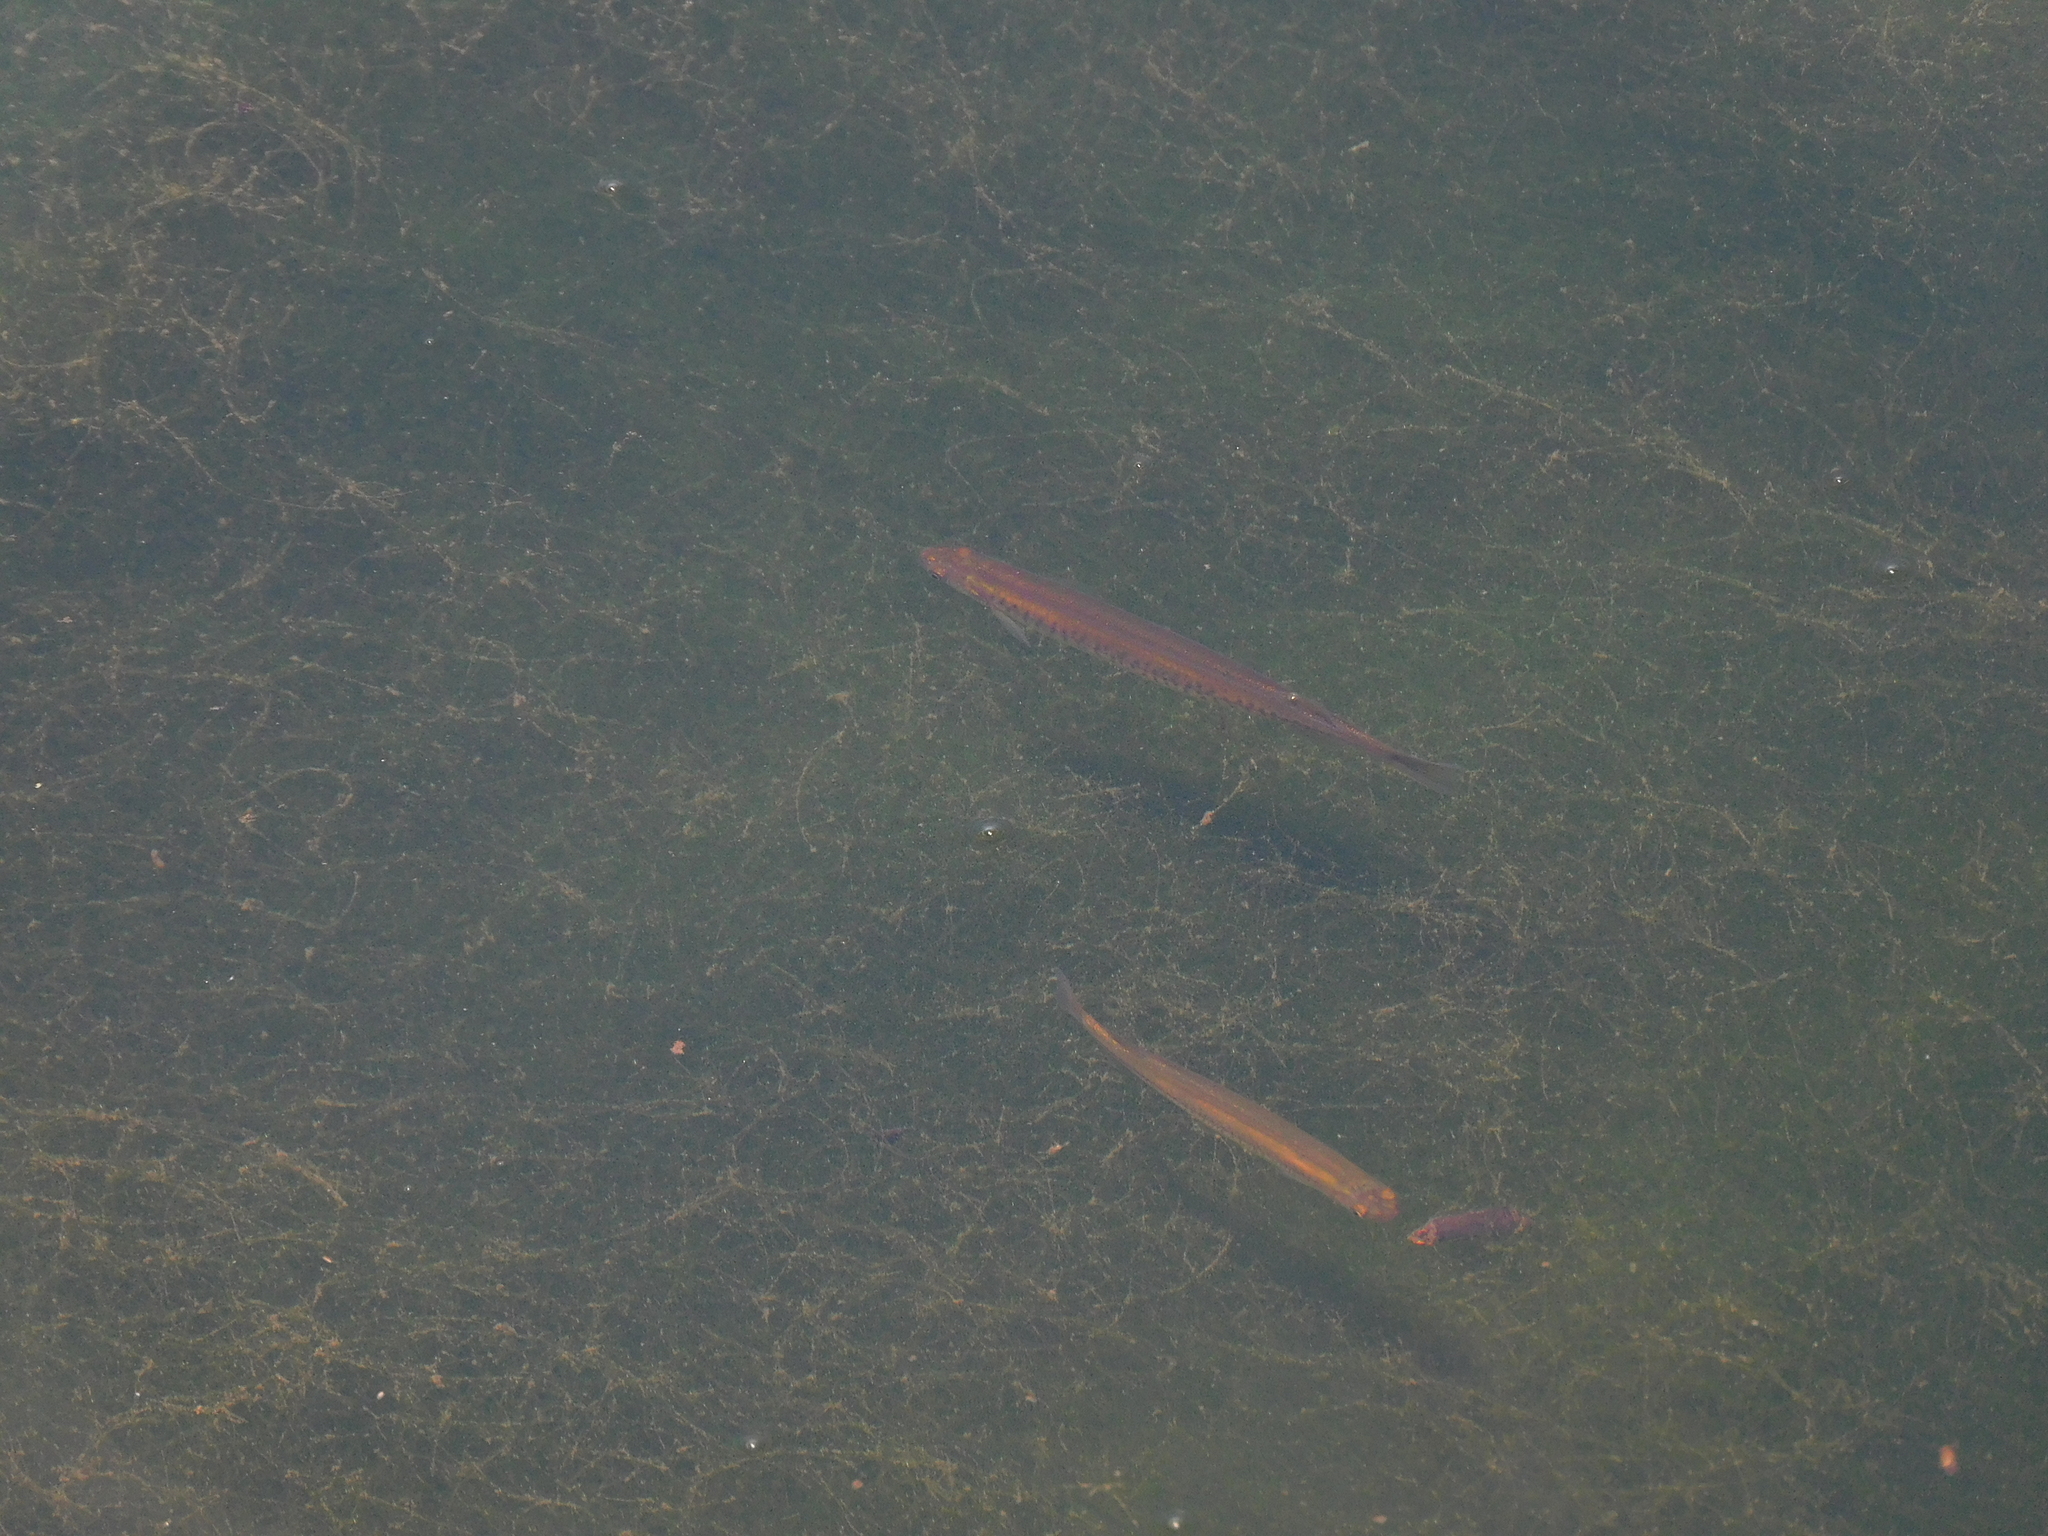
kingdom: Animalia
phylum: Chordata
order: Osmeriformes
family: Galaxiidae
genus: Galaxias
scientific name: Galaxias maculatus
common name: Common galaxias
